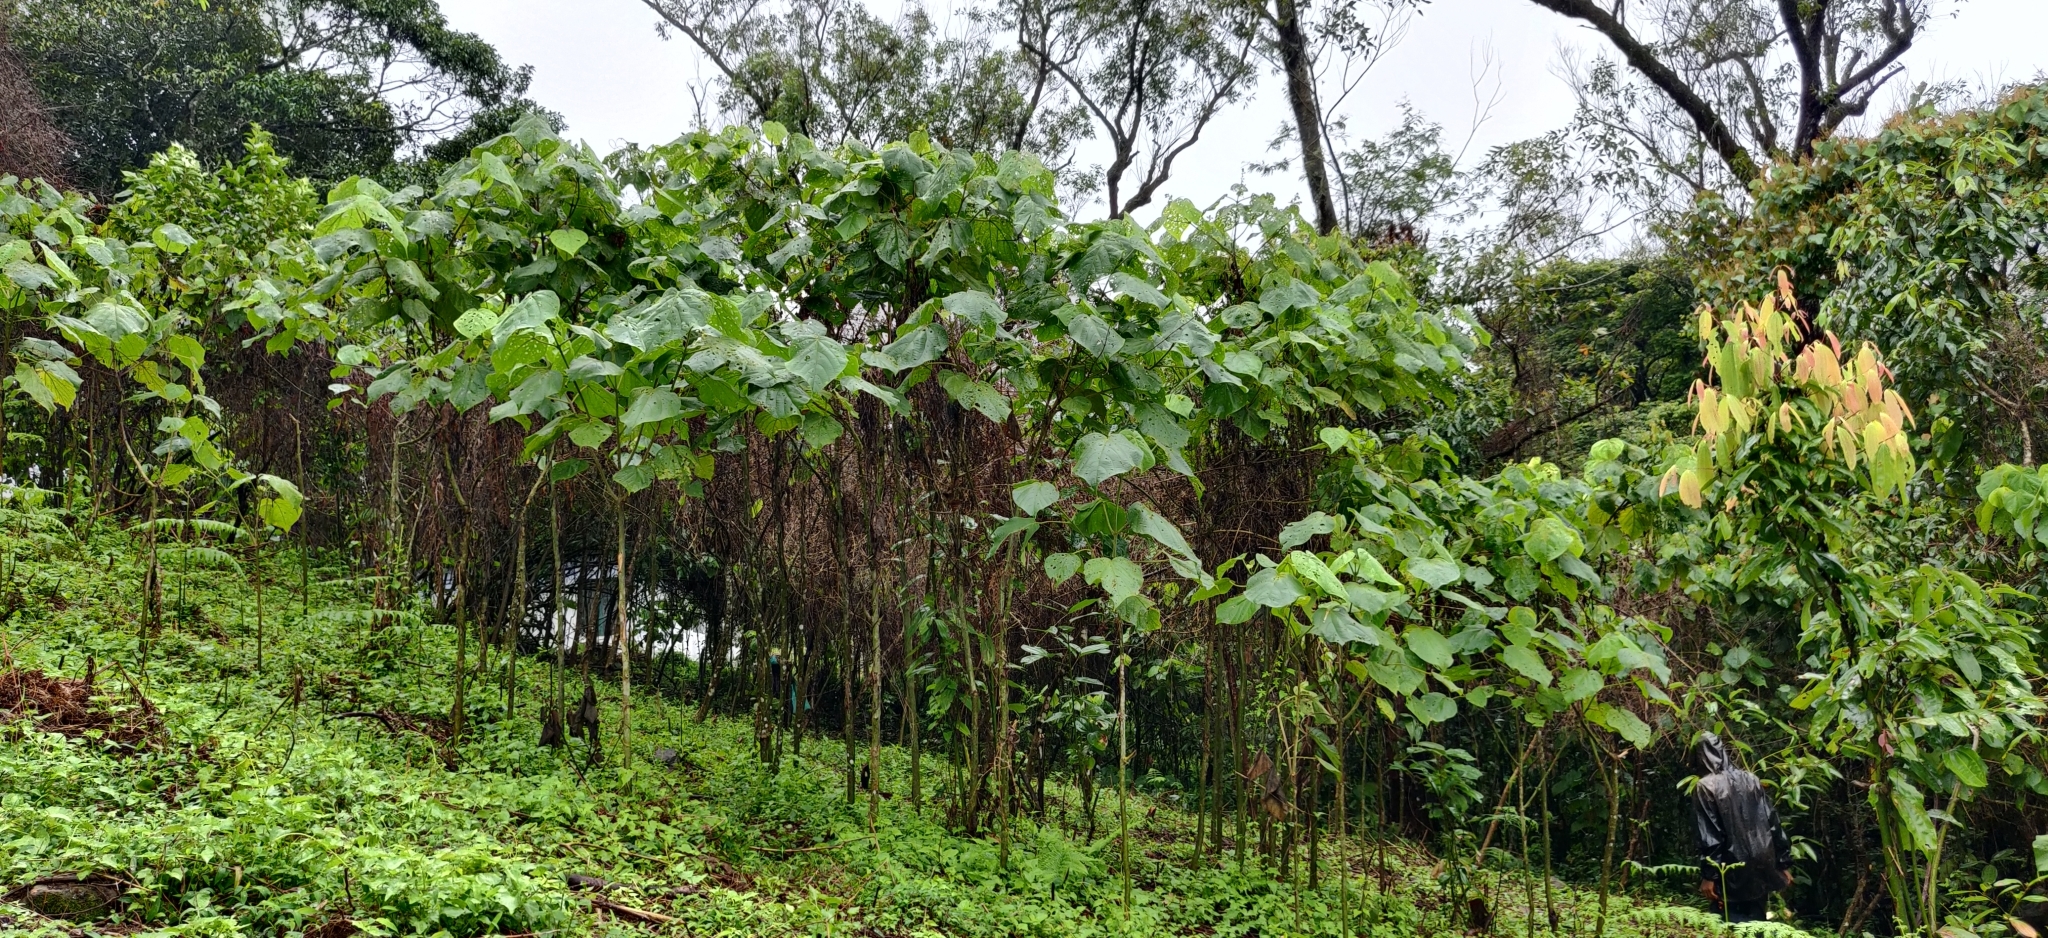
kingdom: Plantae
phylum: Tracheophyta
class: Magnoliopsida
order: Lamiales
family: Lamiaceae
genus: Clerodendrum
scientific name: Clerodendrum infortunatum
